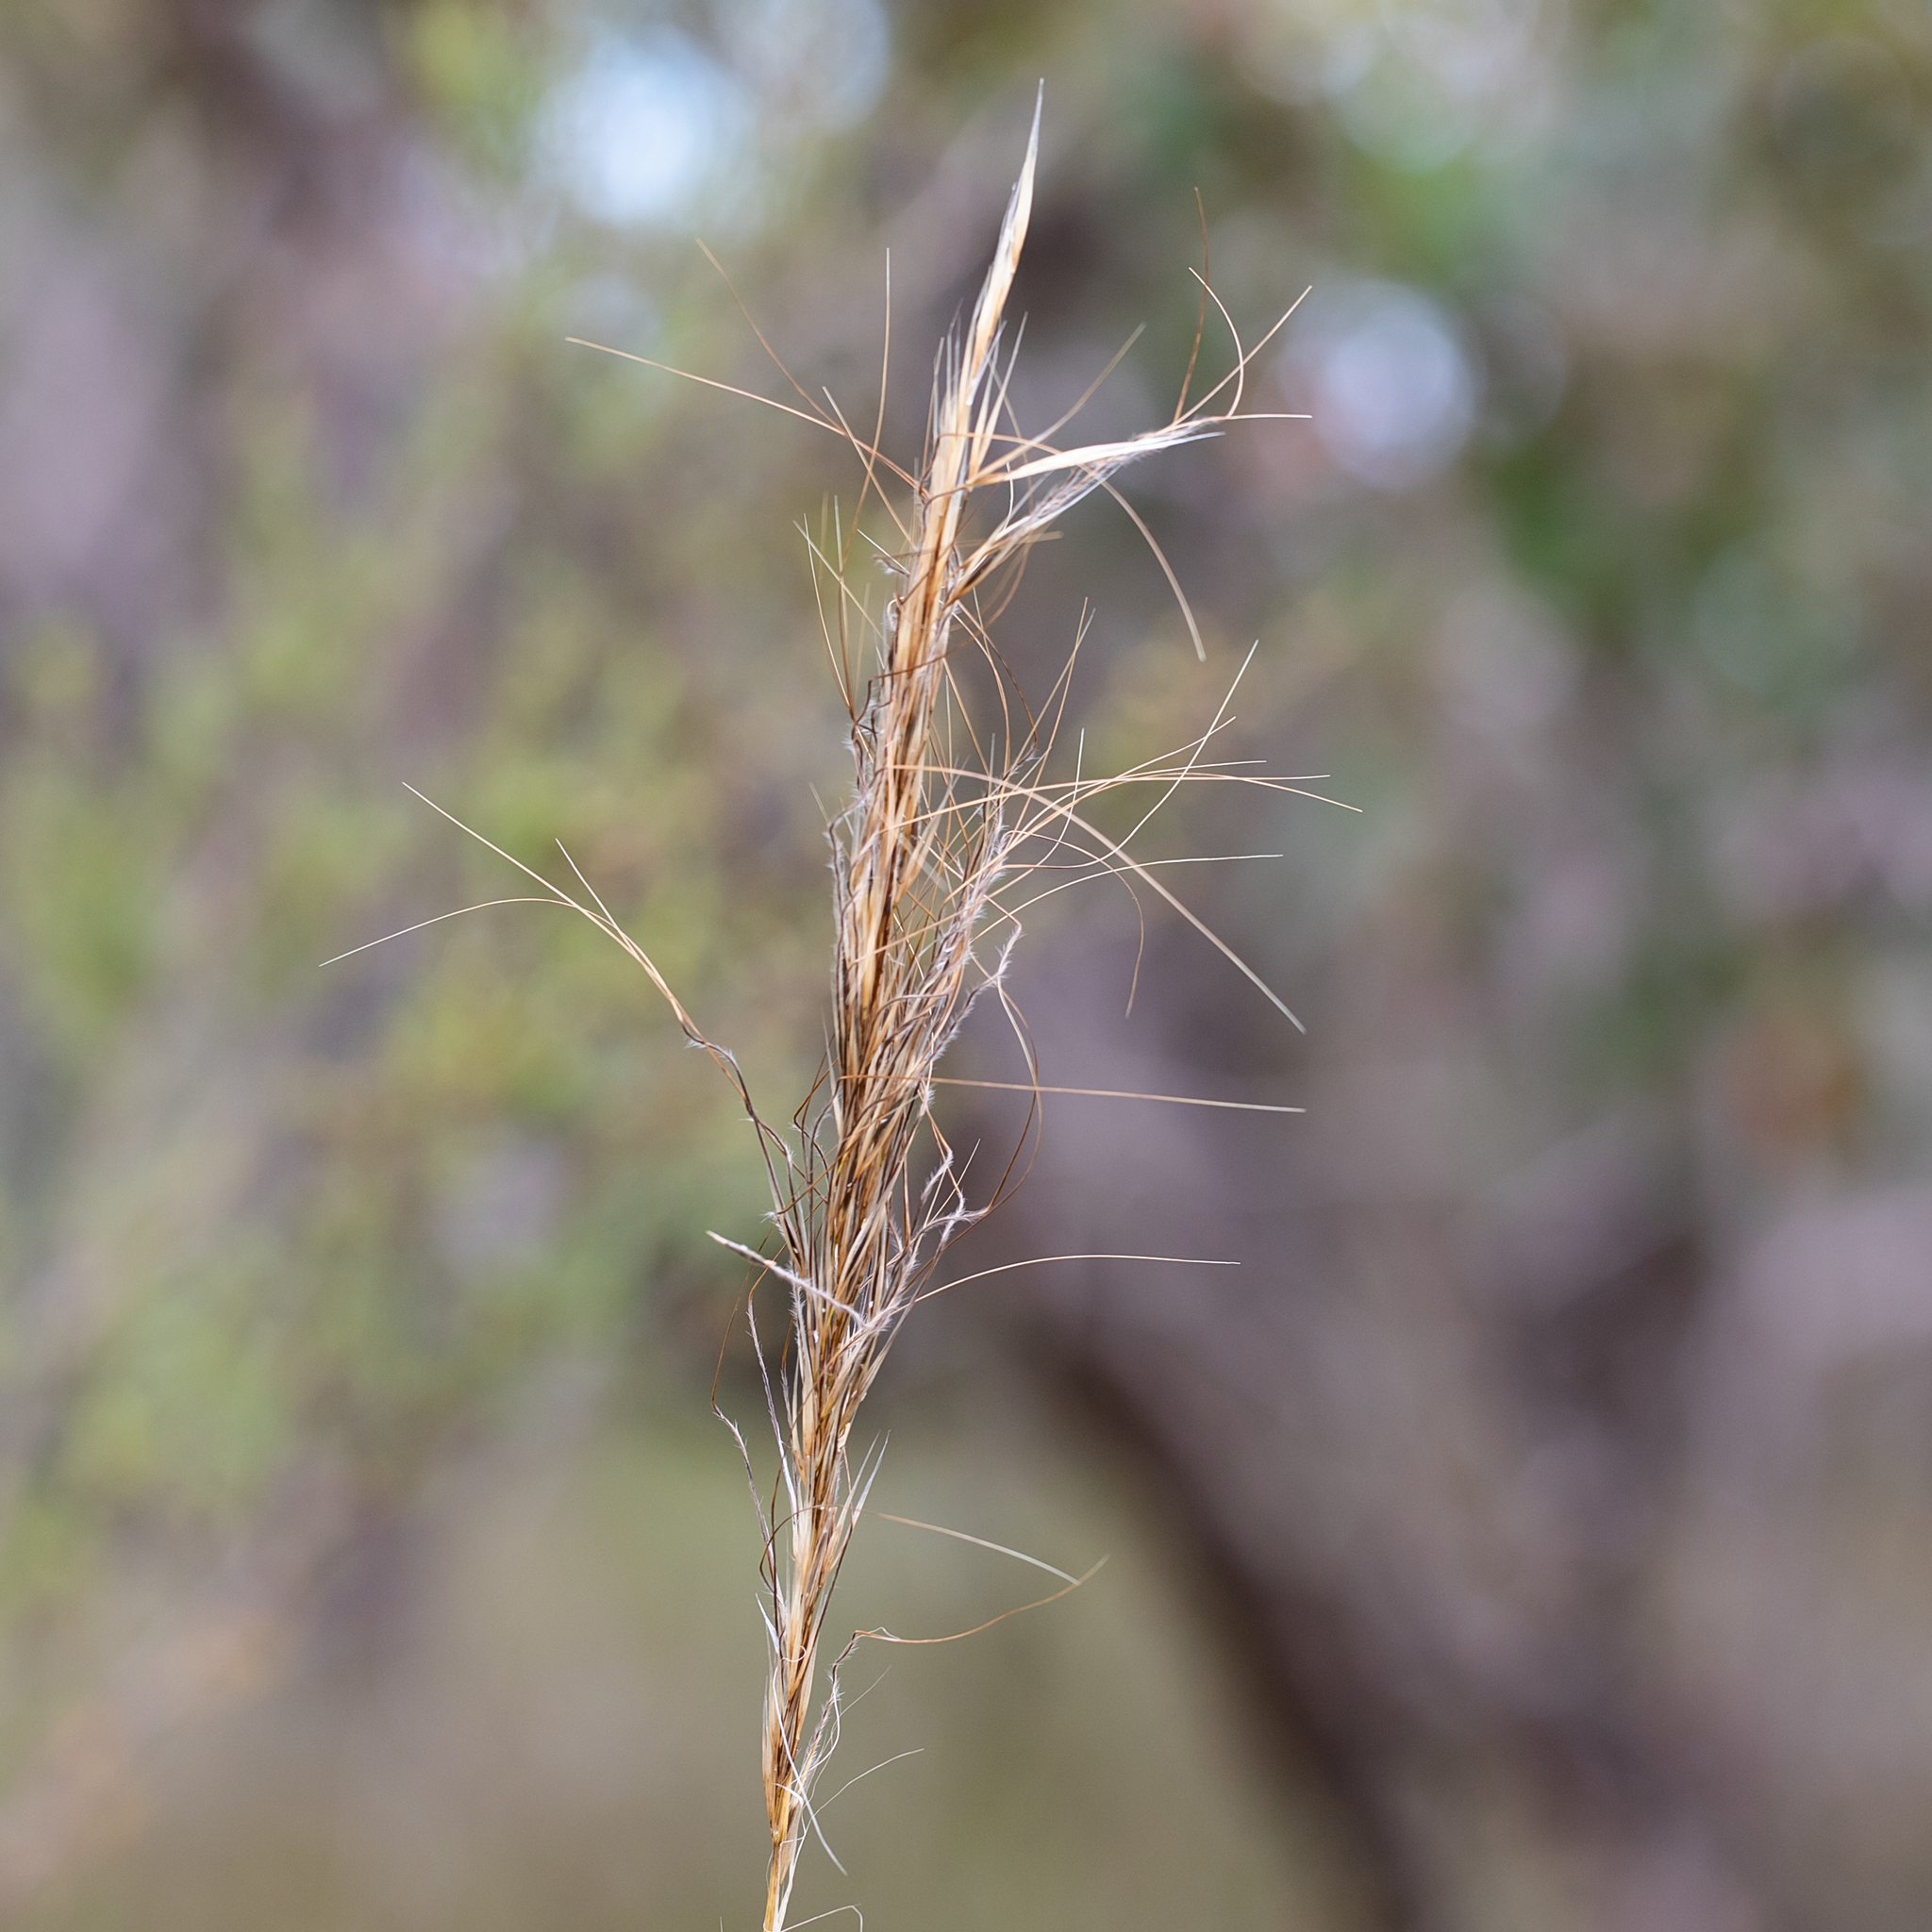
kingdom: Plantae
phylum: Tracheophyta
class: Liliopsida
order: Poales
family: Poaceae
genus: Austrostipa
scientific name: Austrostipa mollis
